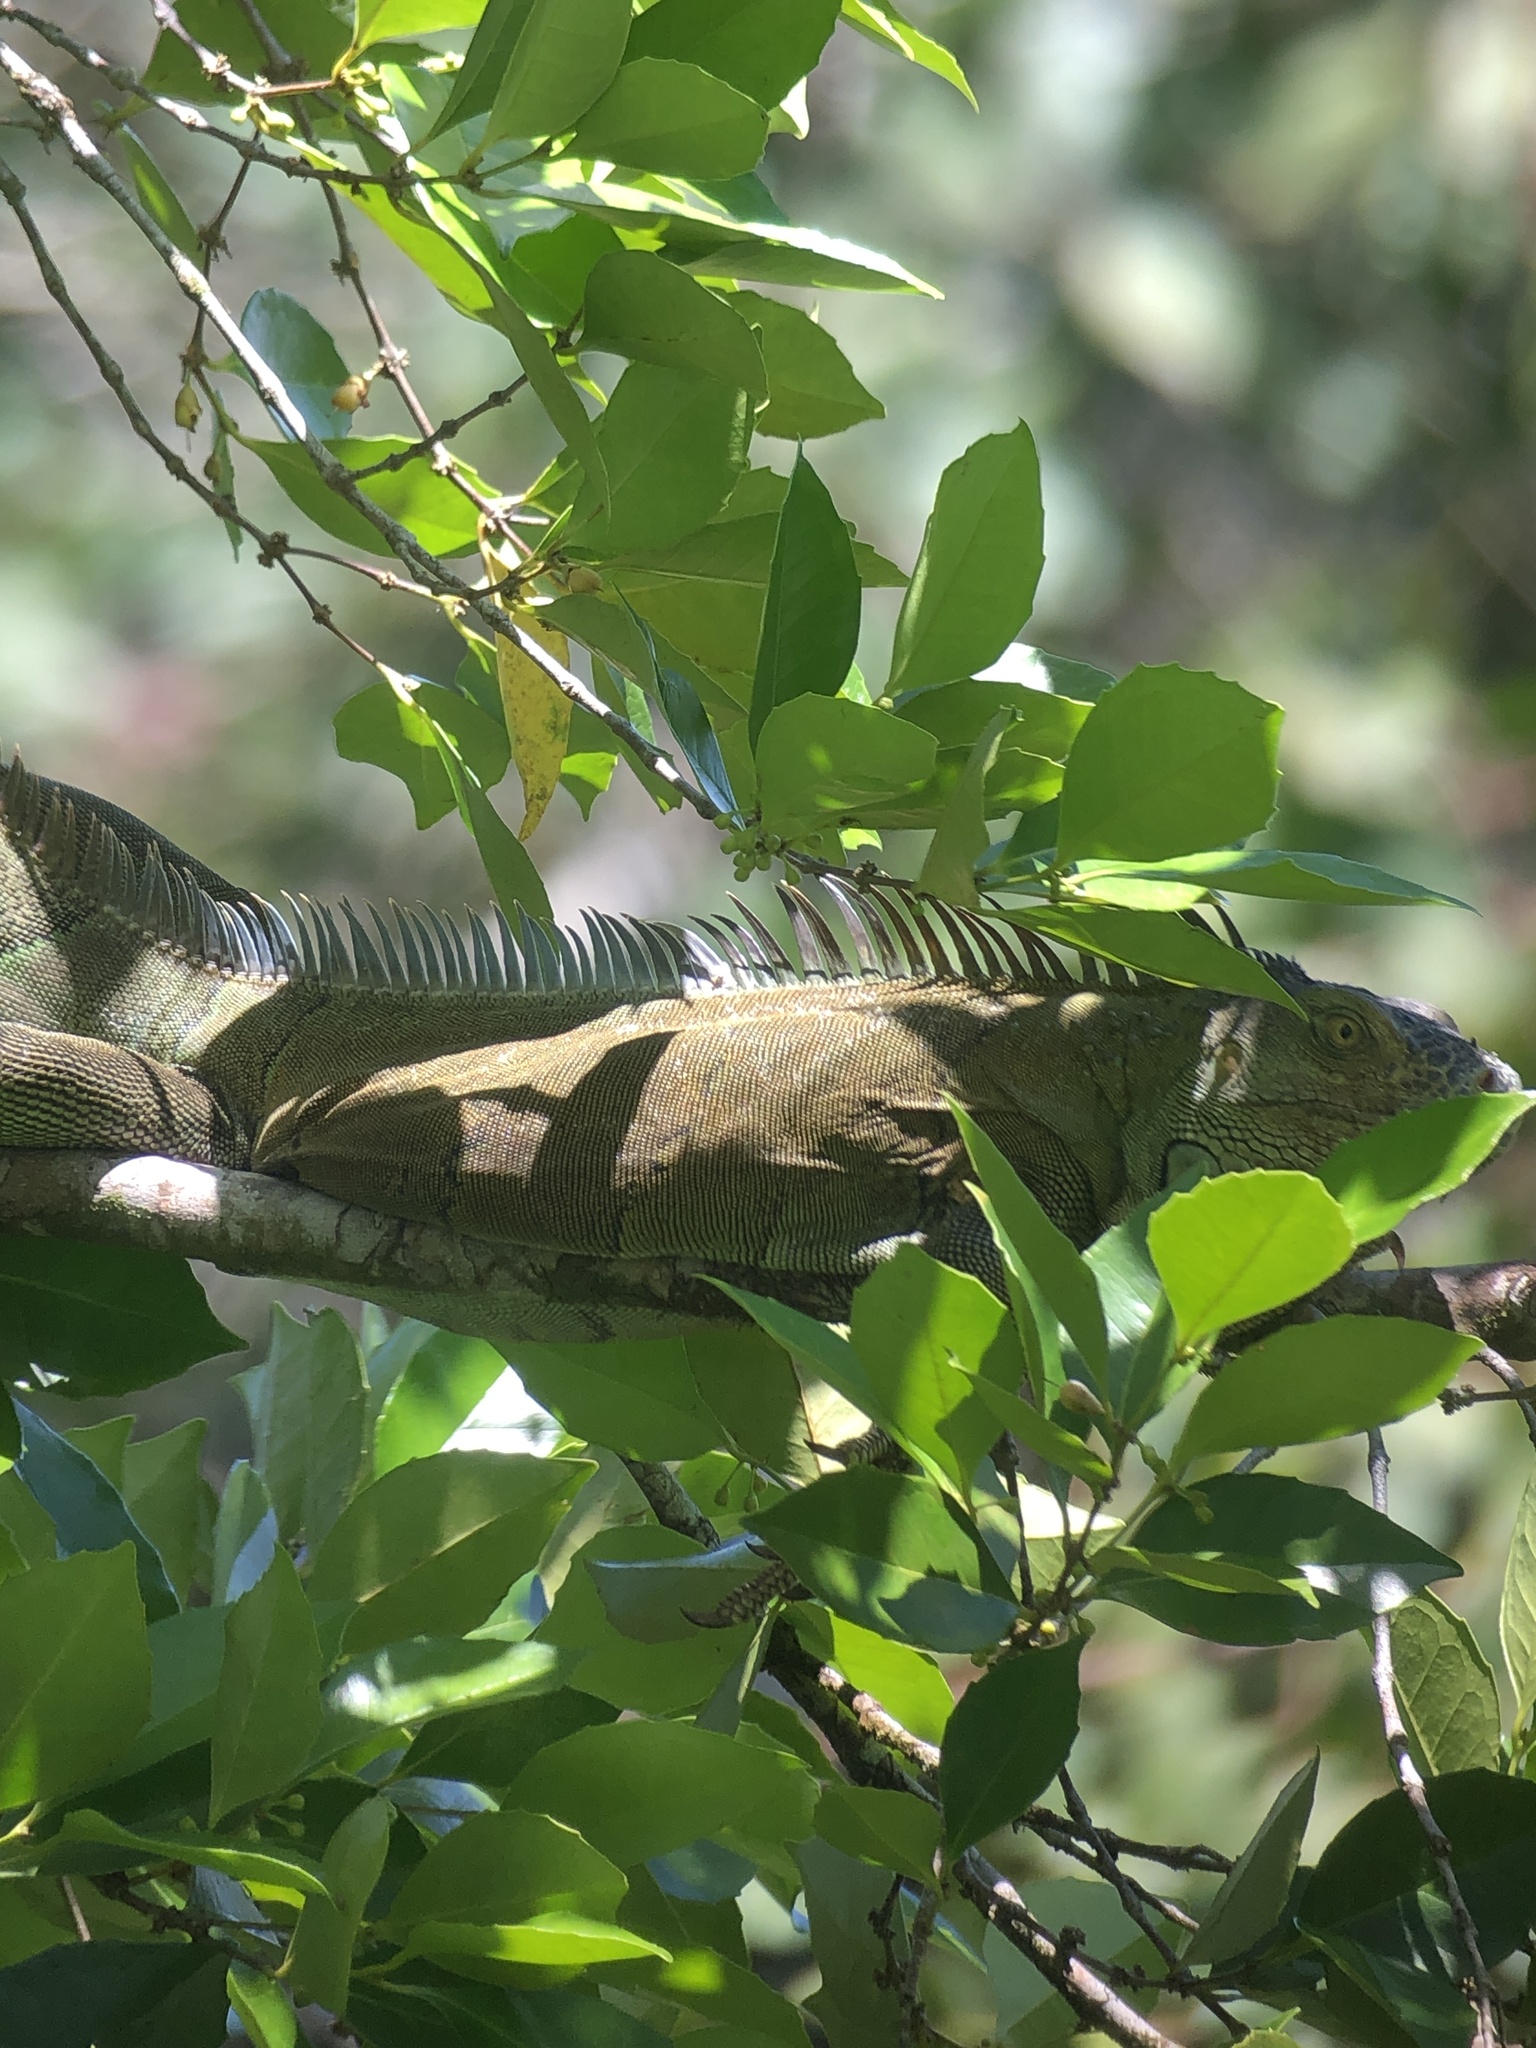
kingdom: Animalia
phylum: Chordata
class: Squamata
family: Iguanidae
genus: Iguana
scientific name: Iguana iguana
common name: Green iguana
